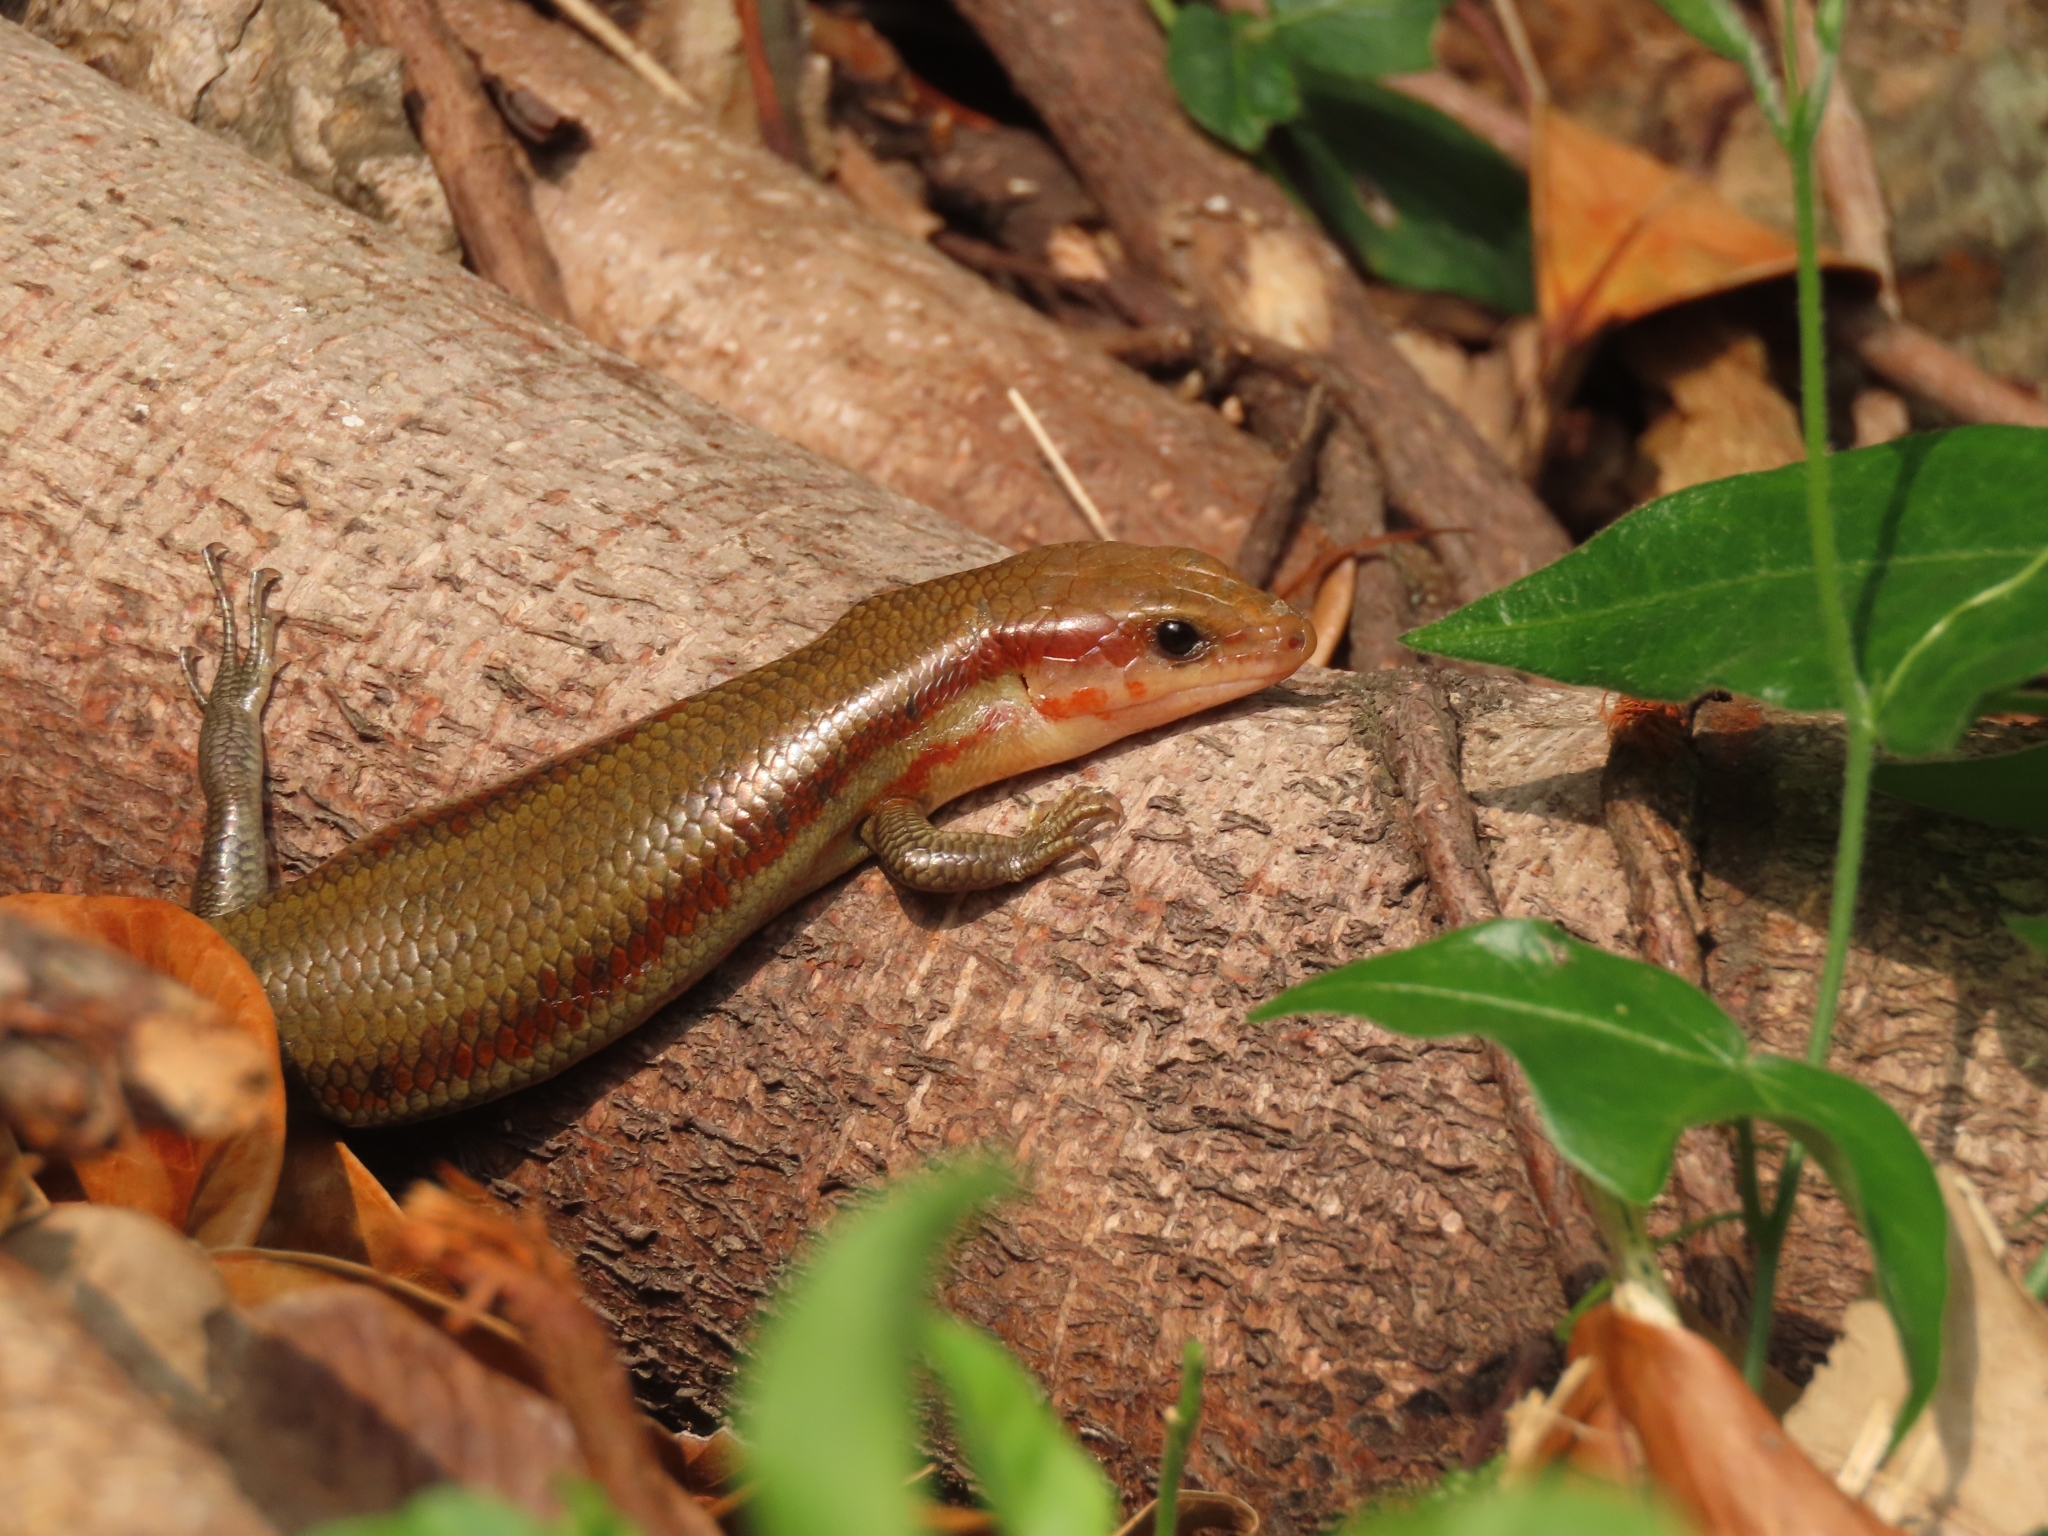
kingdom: Animalia
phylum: Chordata
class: Squamata
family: Scincidae
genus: Plestiodon
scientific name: Plestiodon elegans
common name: Shanghai elegant skink
